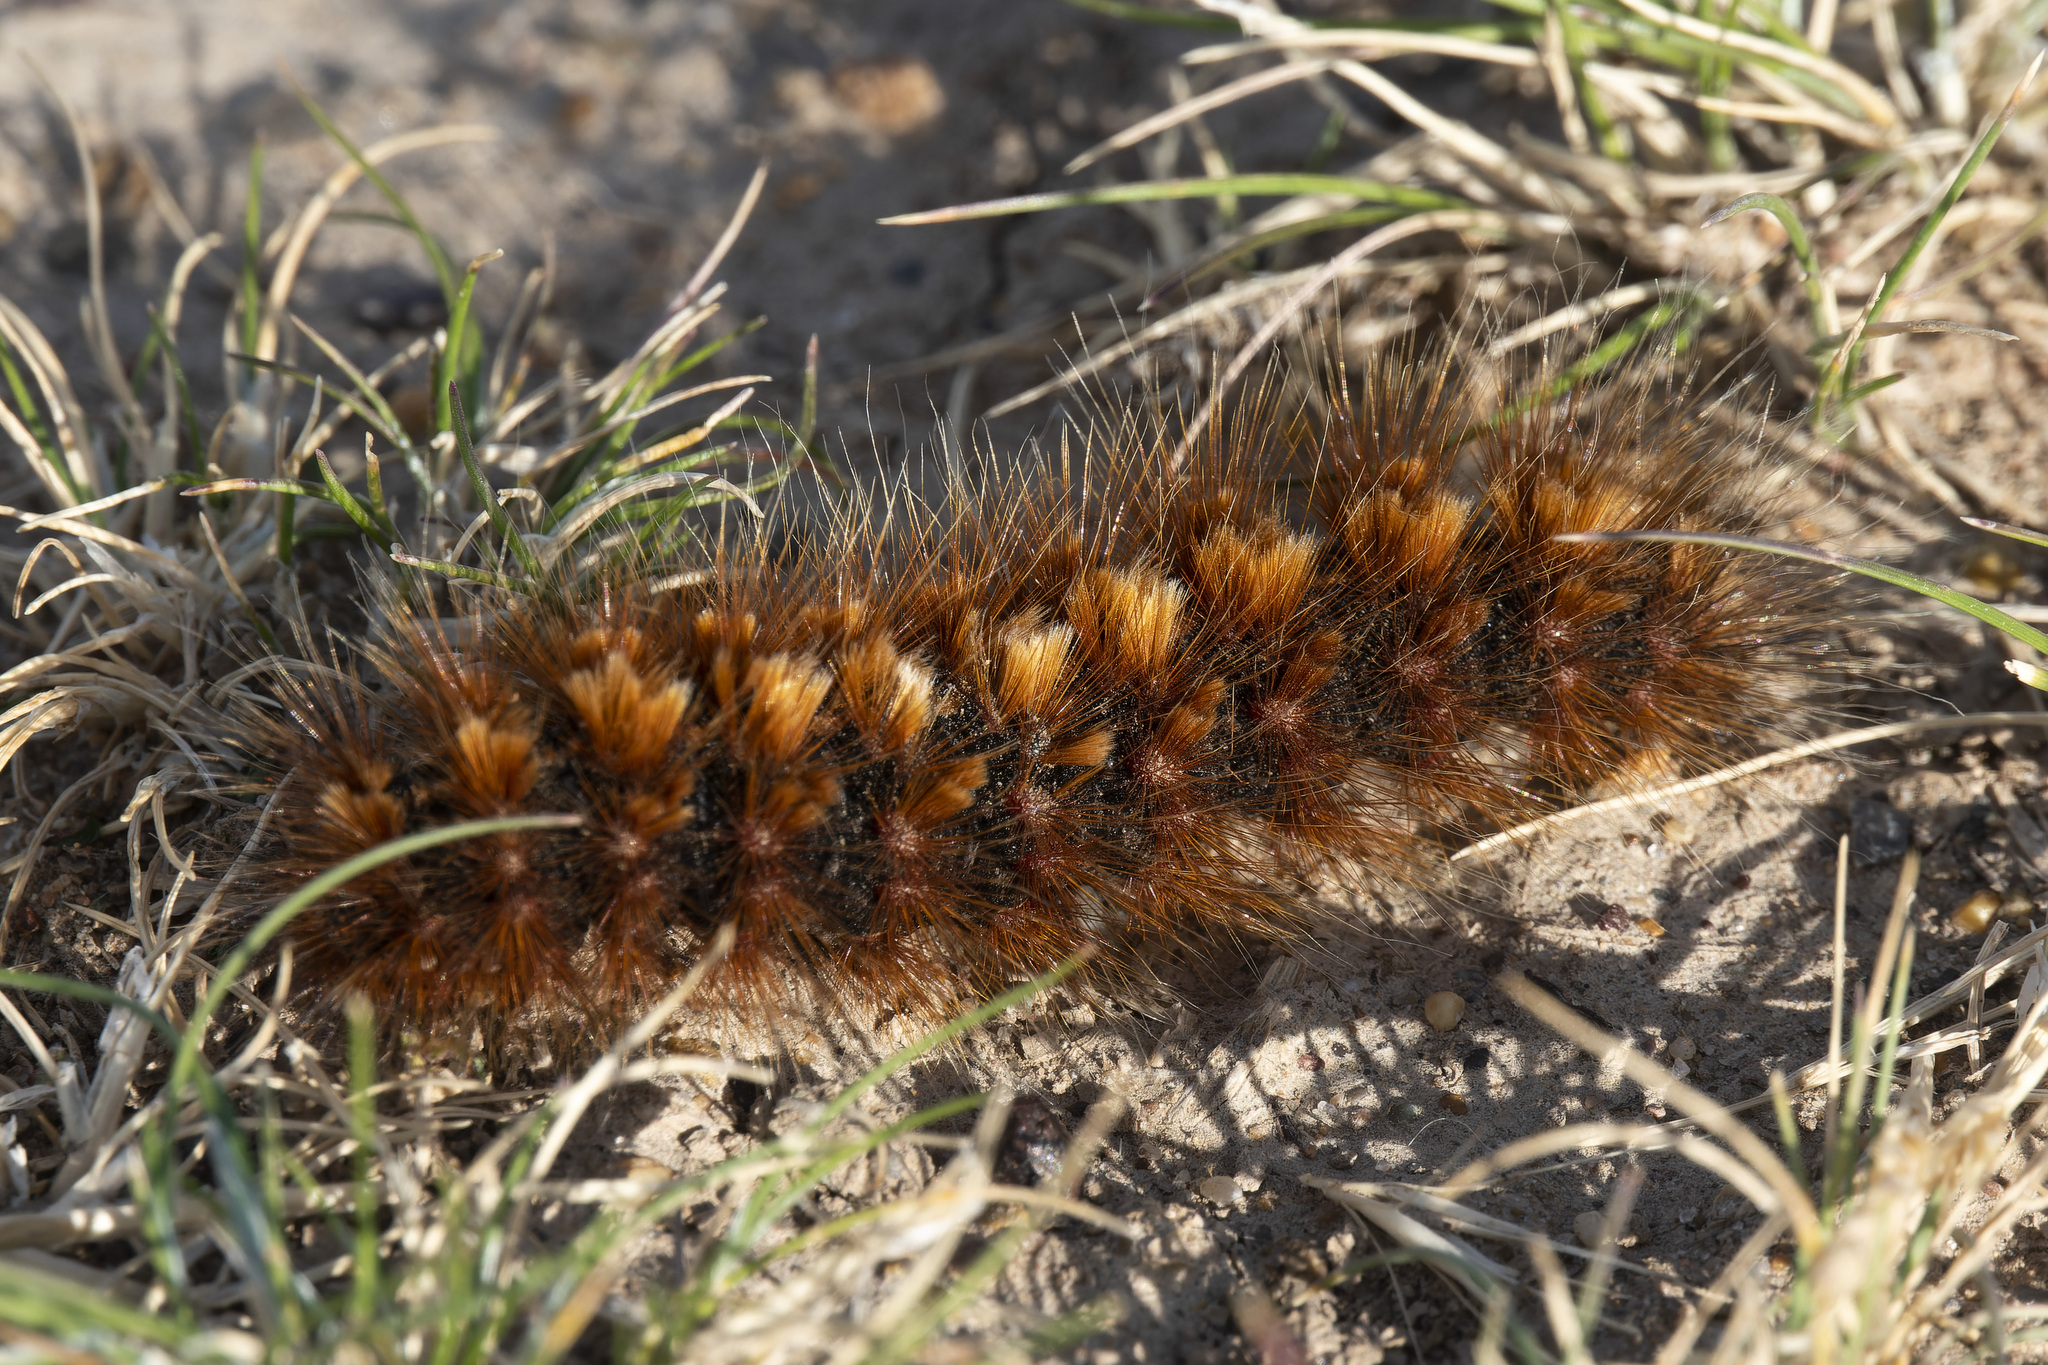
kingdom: Animalia
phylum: Arthropoda
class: Insecta
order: Lepidoptera
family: Erebidae
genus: Paracles
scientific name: Paracles severa
